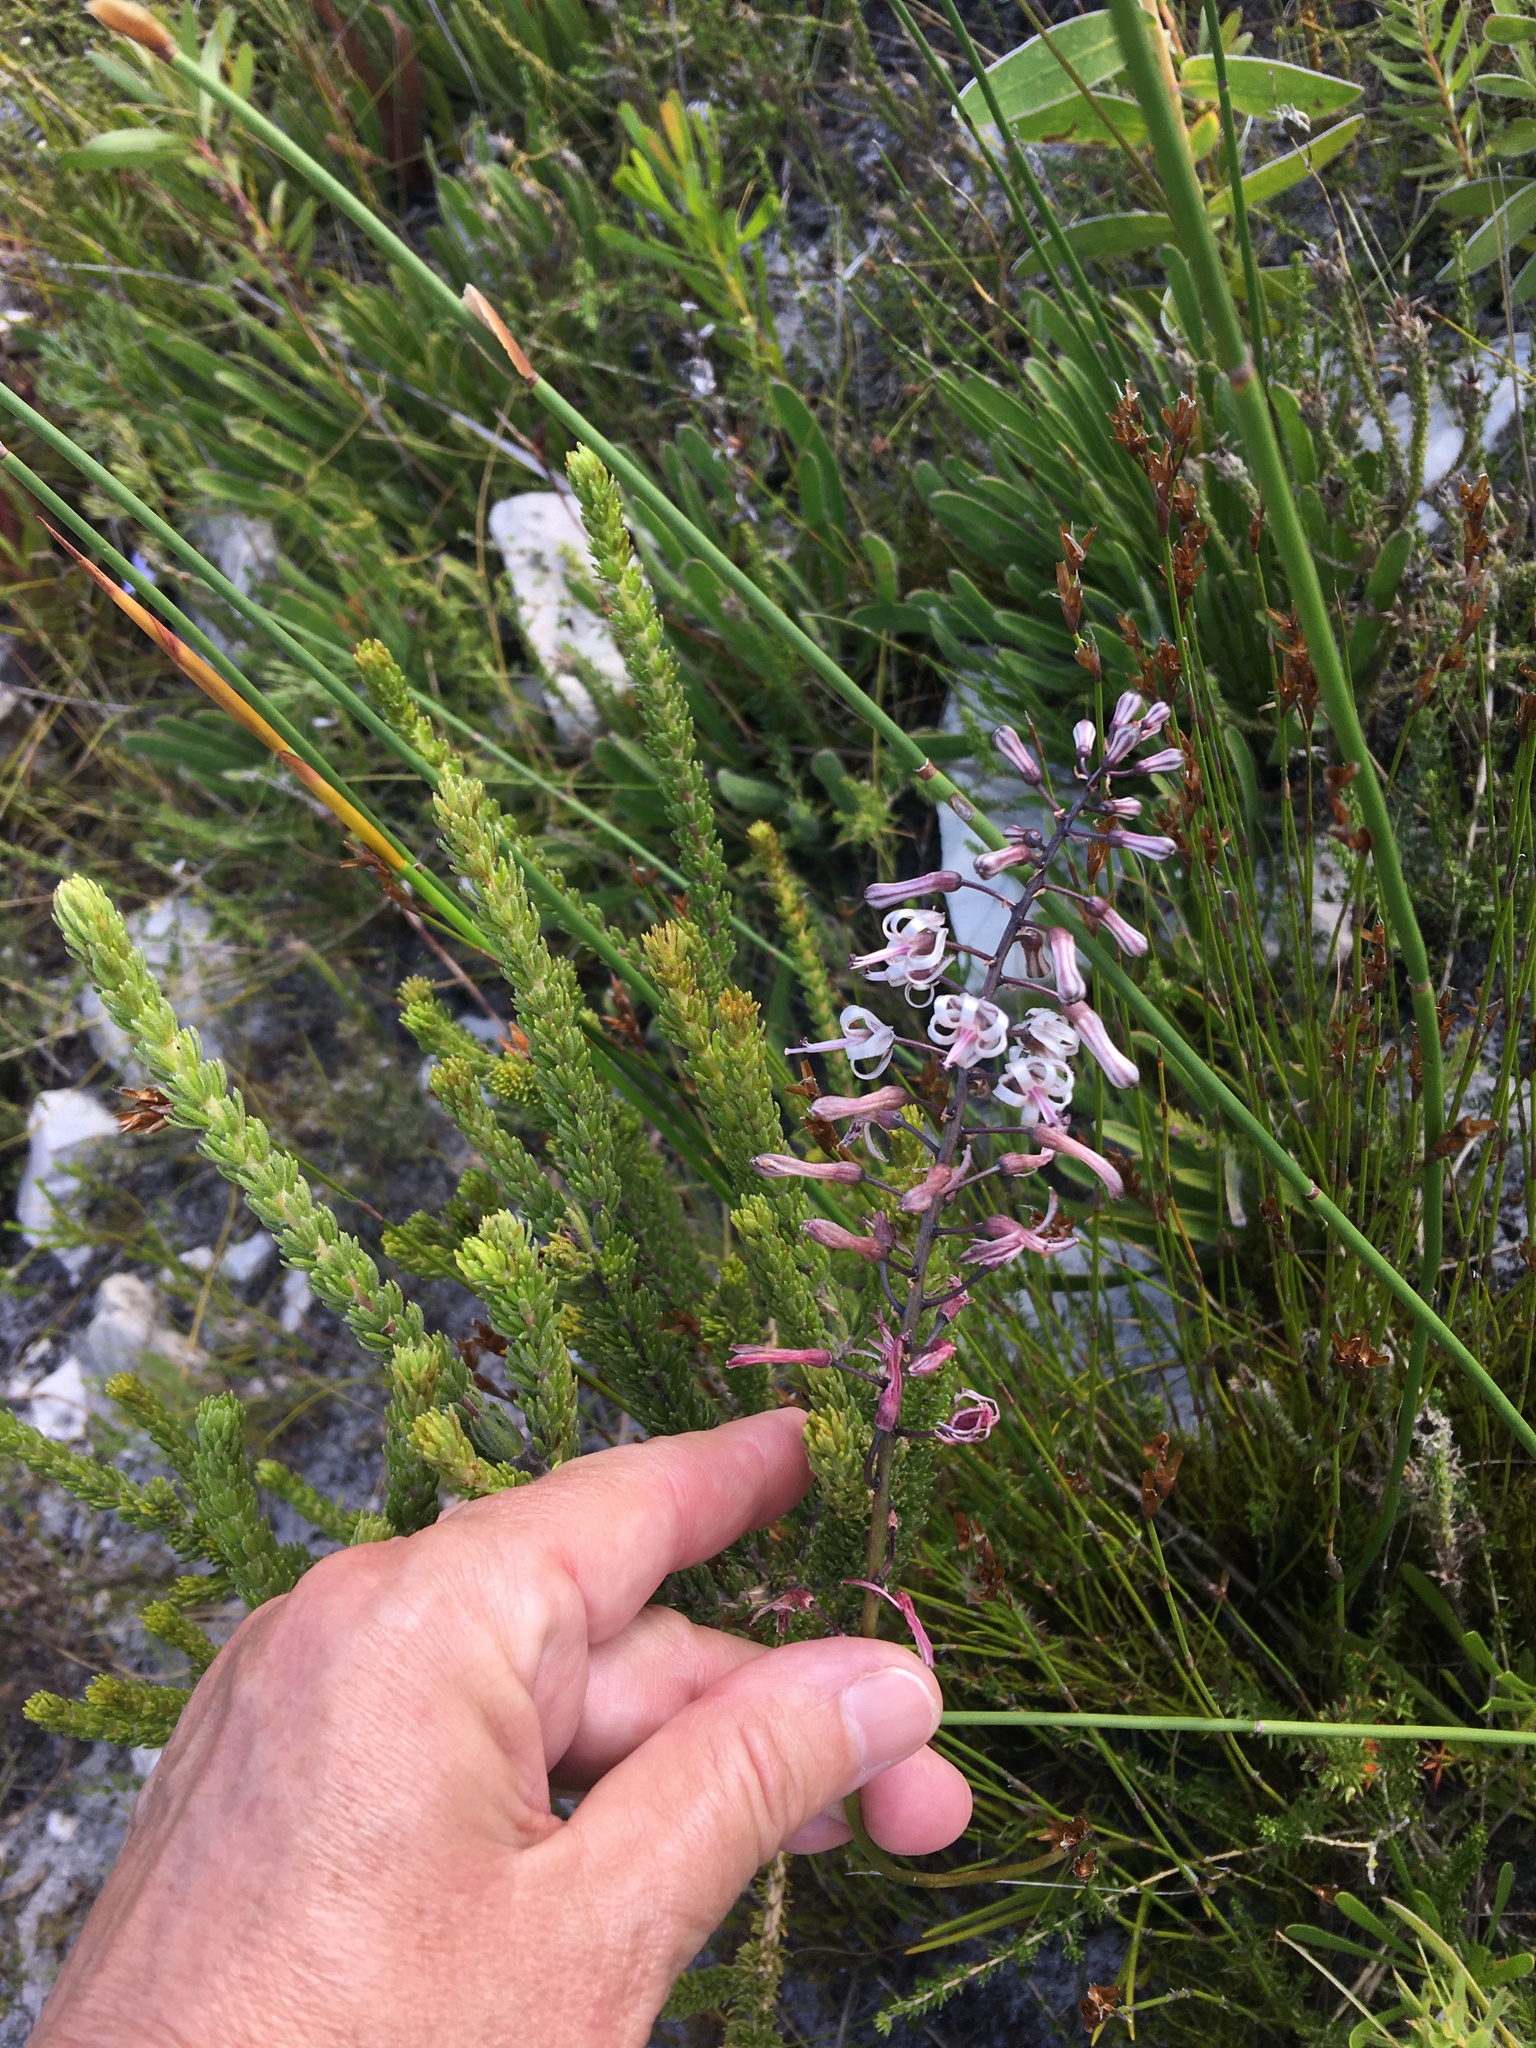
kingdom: Plantae
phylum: Tracheophyta
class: Liliopsida
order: Asparagales
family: Asparagaceae
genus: Drimia
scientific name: Drimia media
